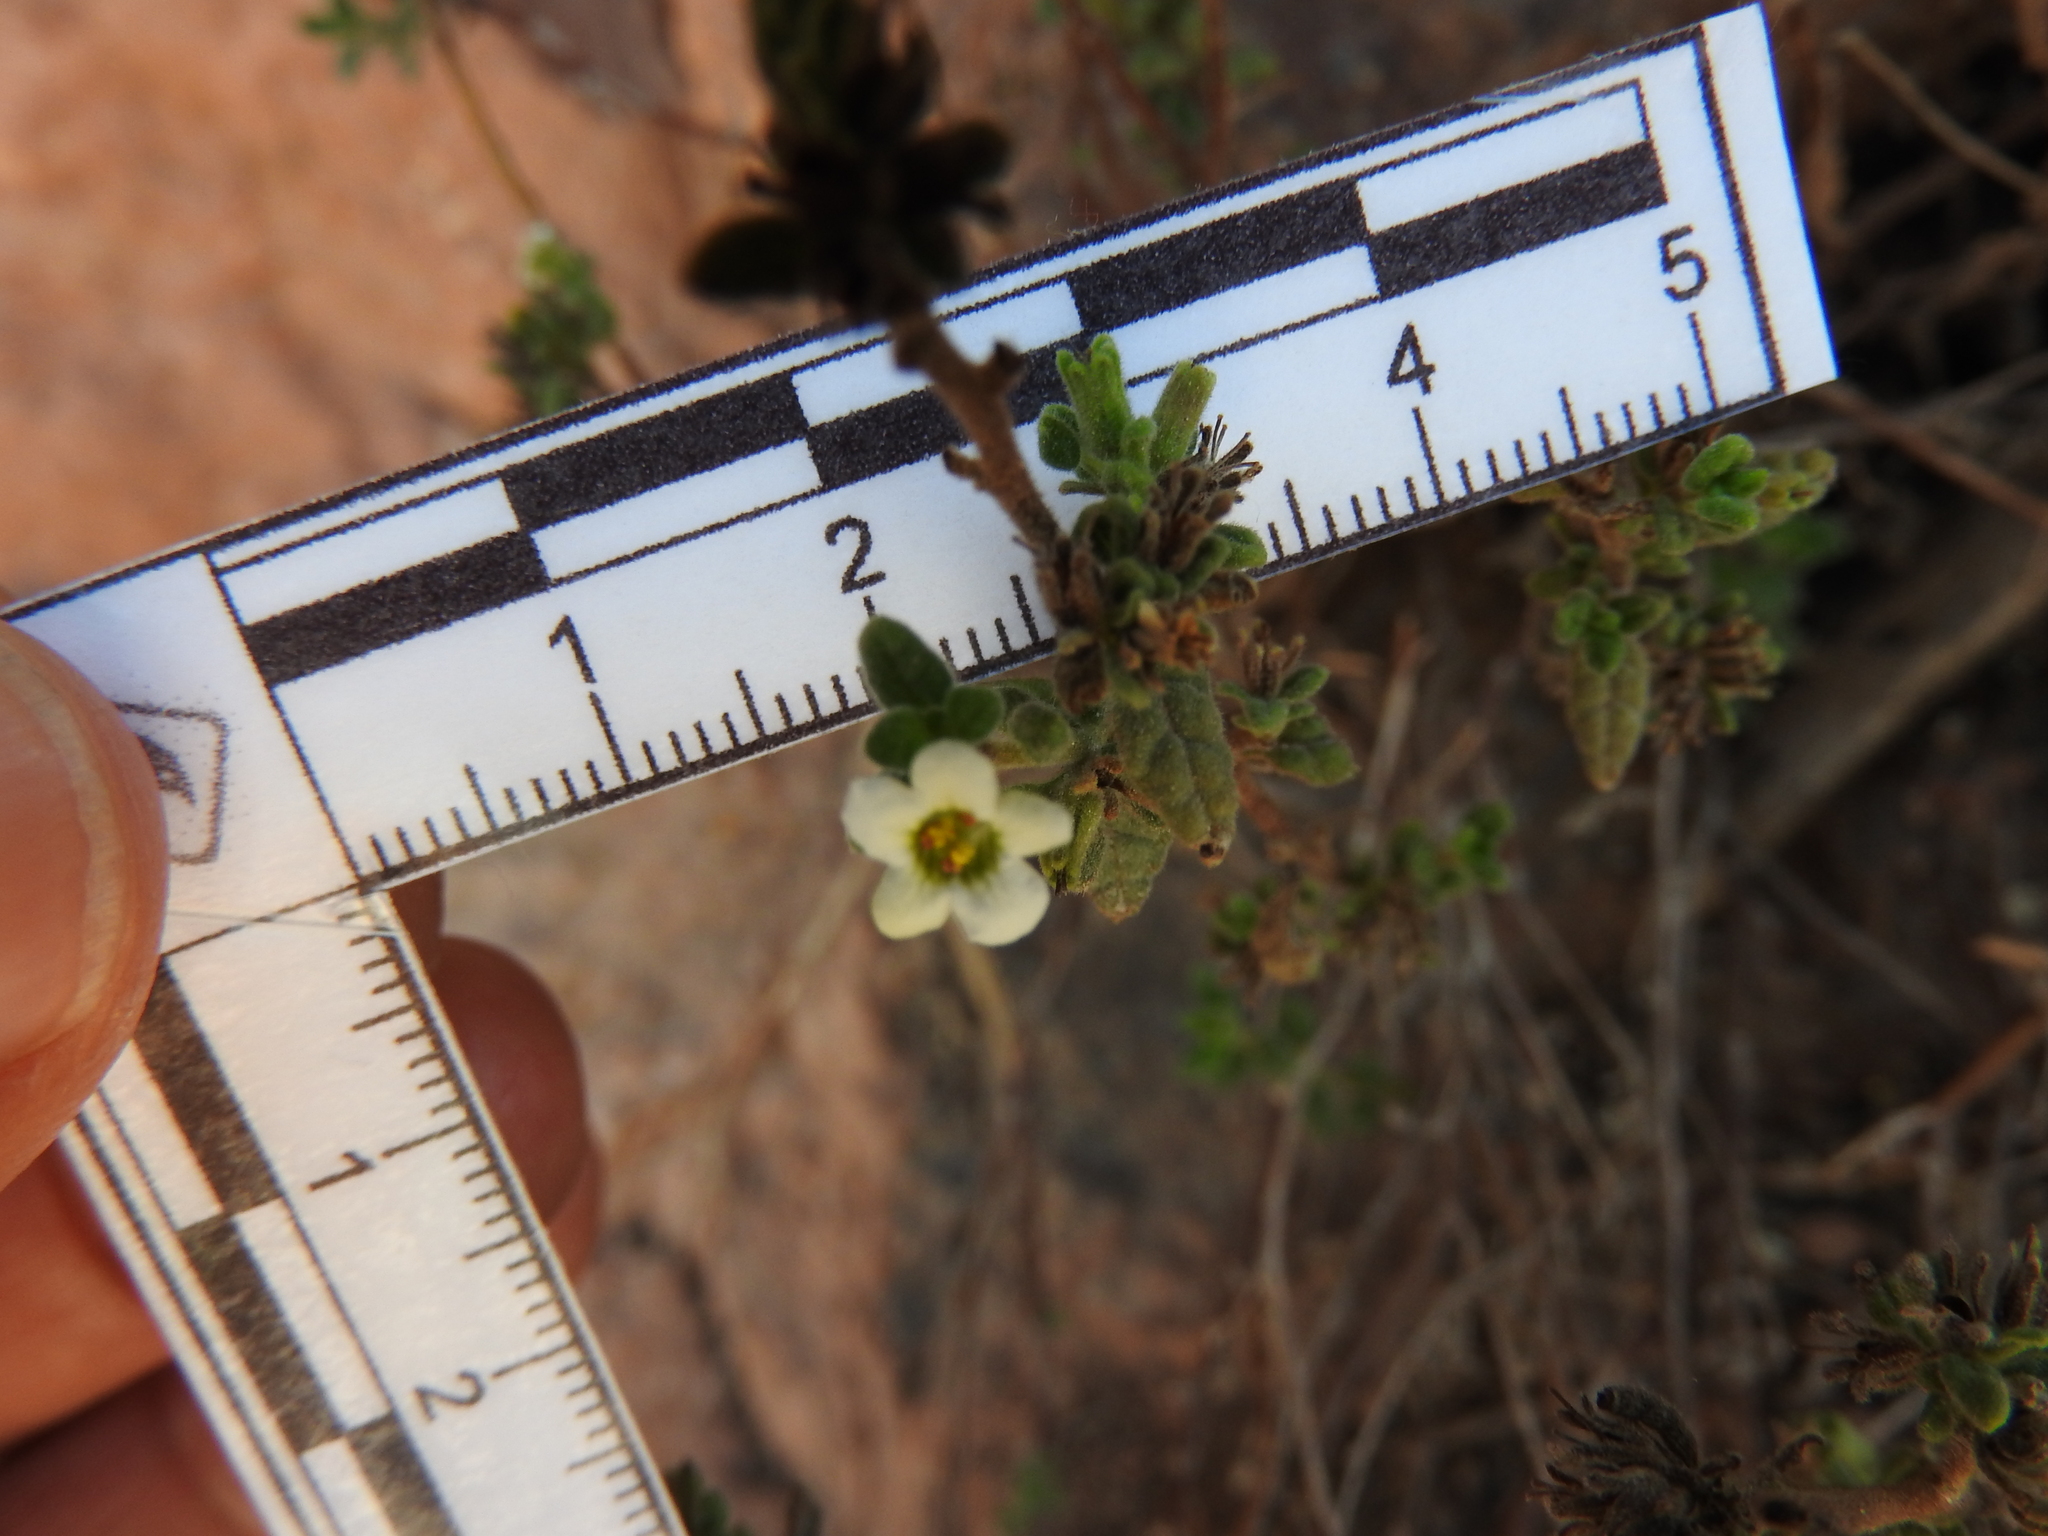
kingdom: Plantae
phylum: Tracheophyta
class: Magnoliopsida
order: Boraginales
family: Namaceae
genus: Nama
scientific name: Nama origanifolia
